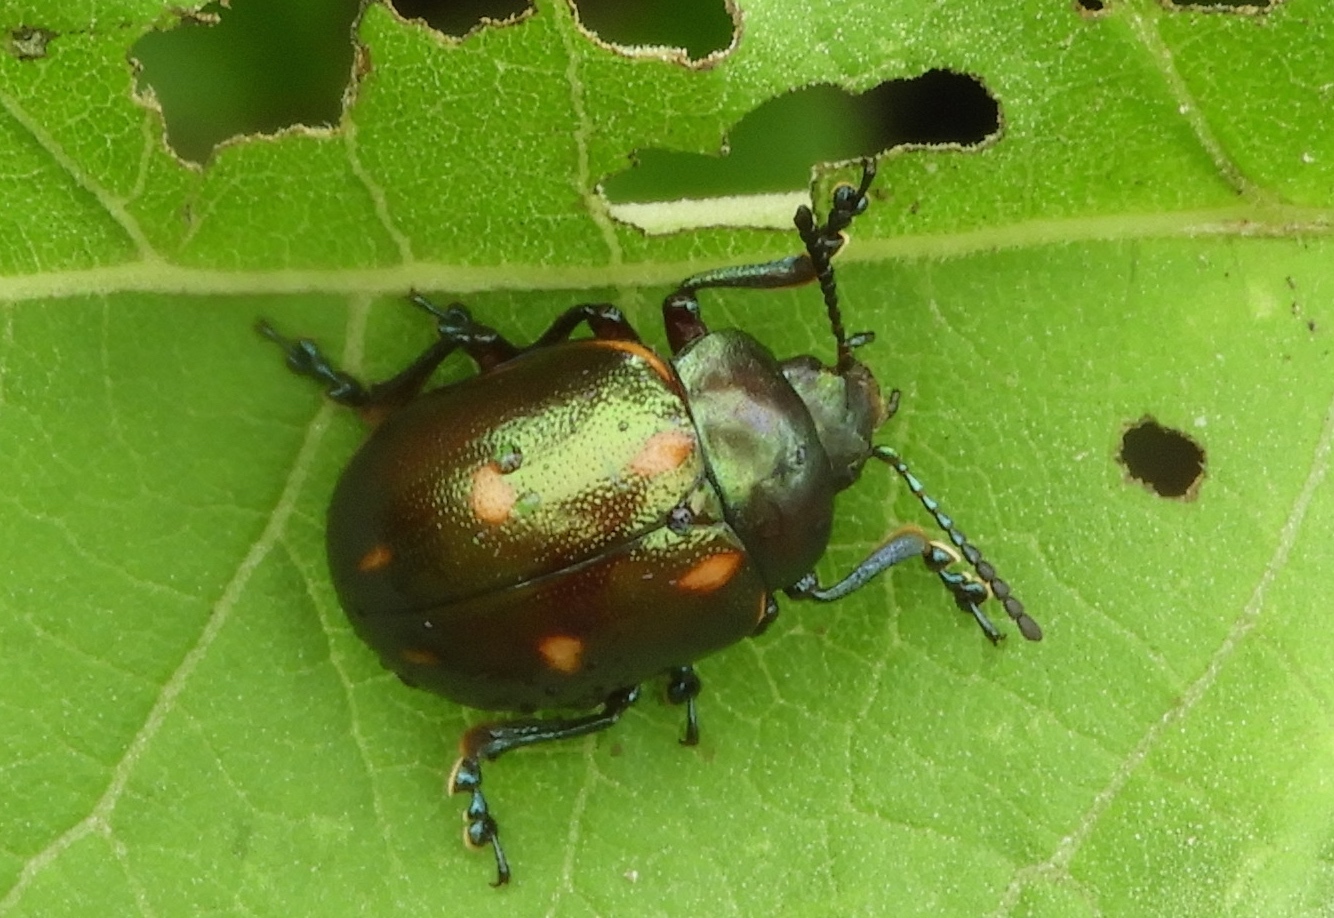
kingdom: Animalia
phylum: Arthropoda
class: Insecta
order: Coleoptera
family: Chrysomelidae
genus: Leptinotarsa
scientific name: Leptinotarsa behrensi
